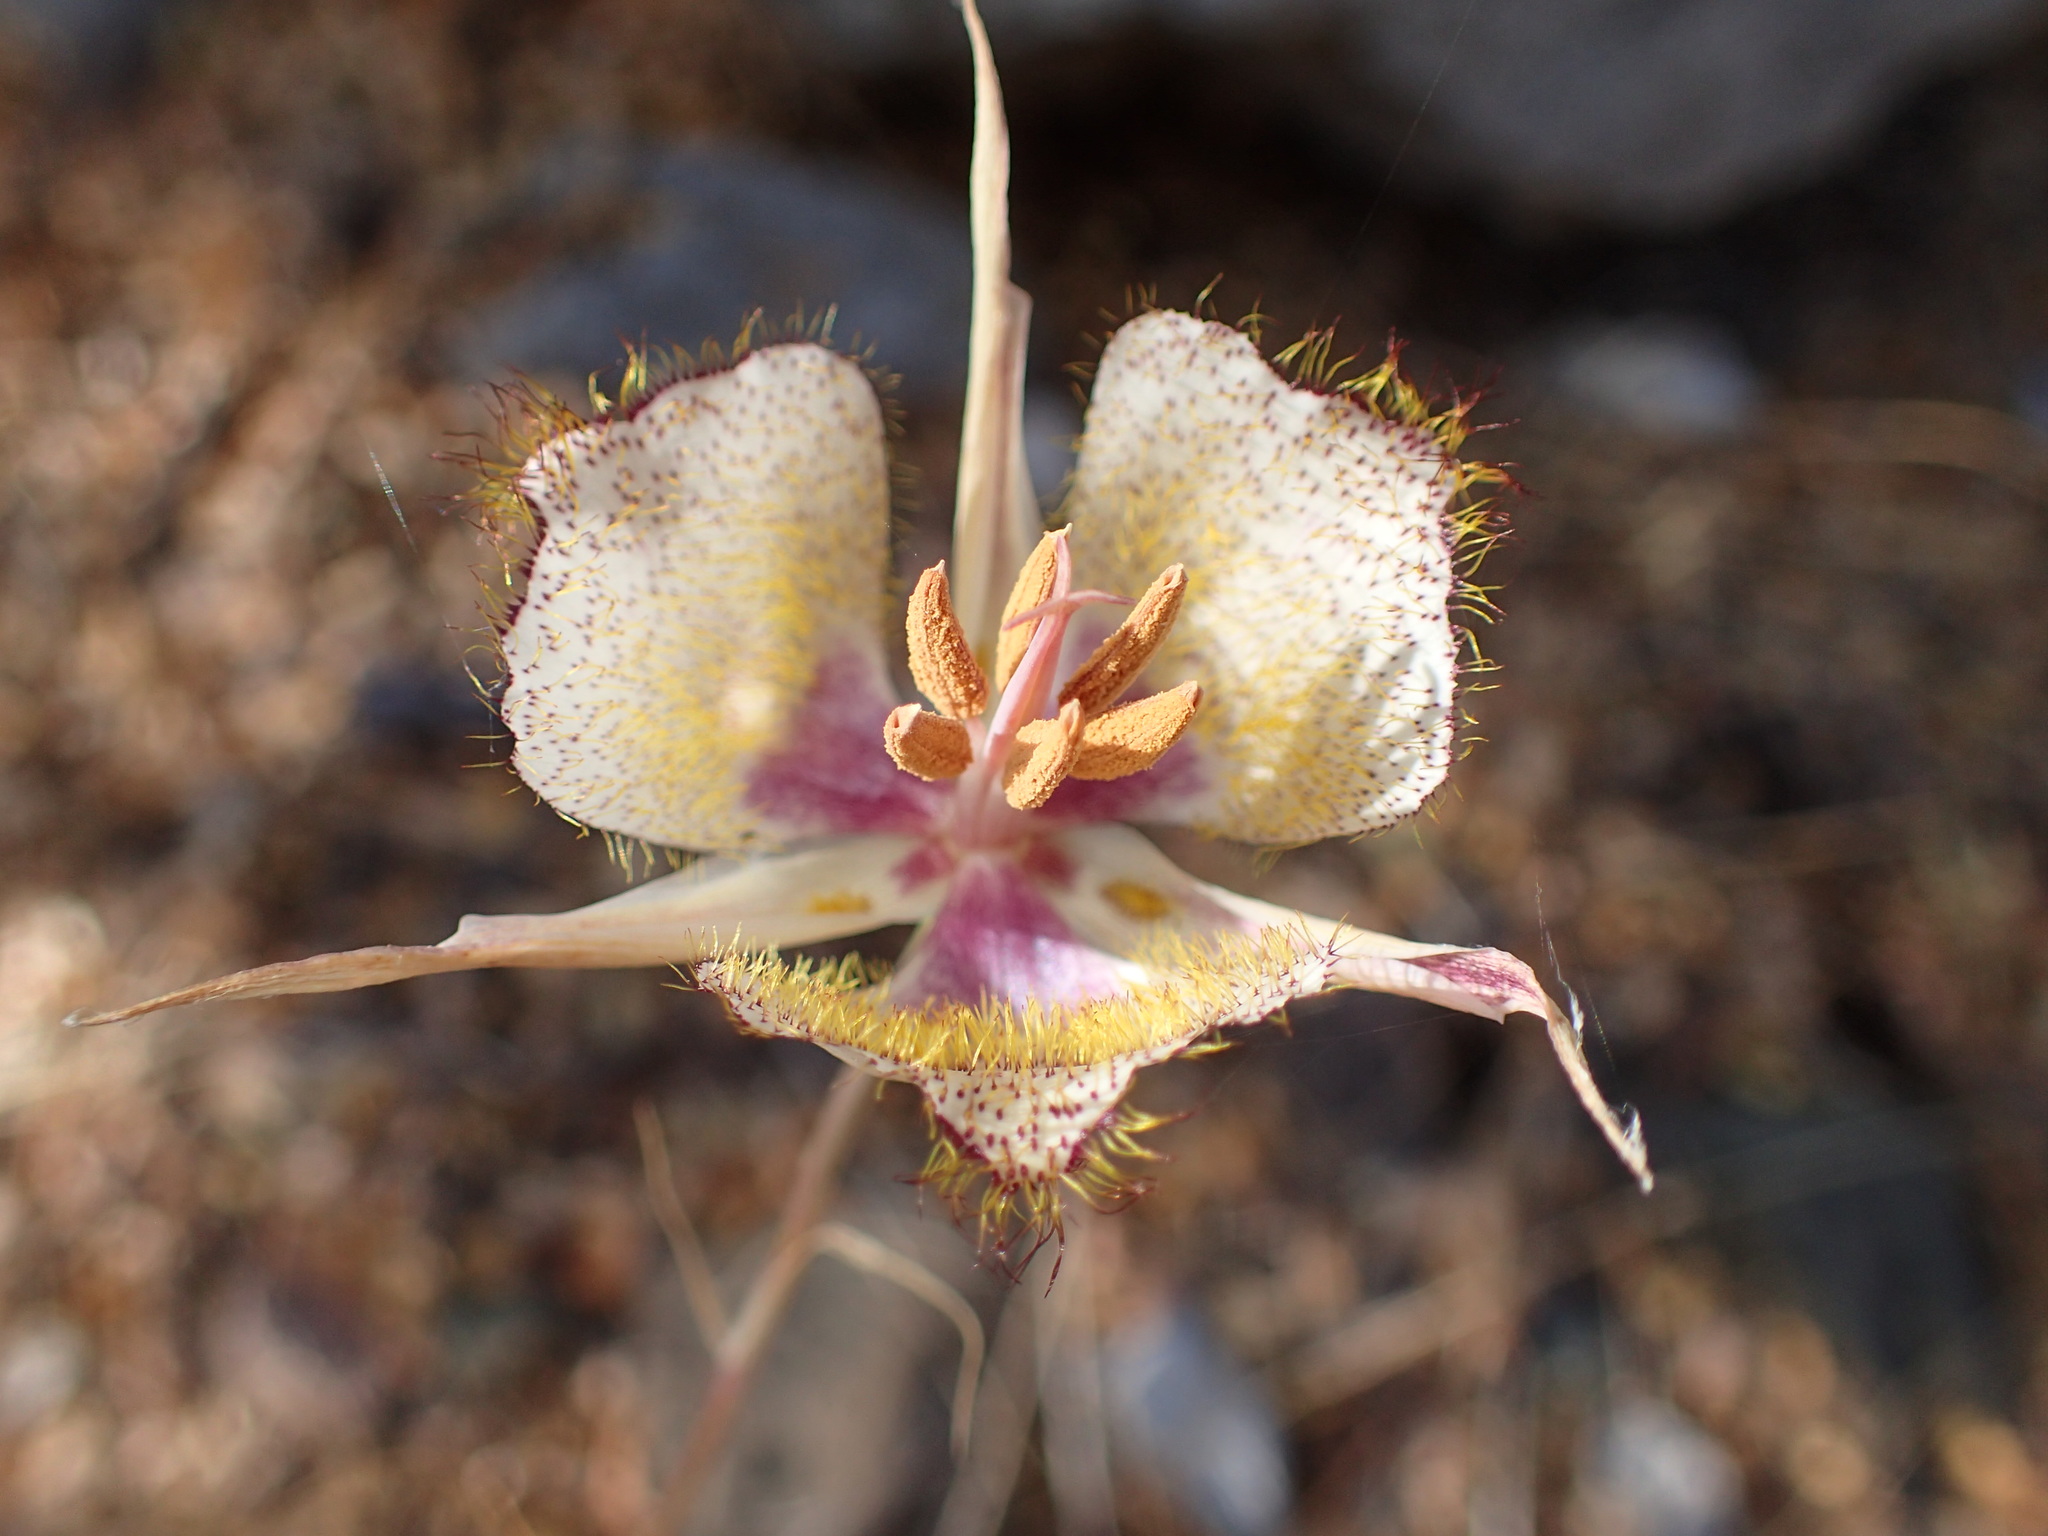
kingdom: Plantae
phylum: Tracheophyta
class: Liliopsida
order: Liliales
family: Liliaceae
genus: Calochortus
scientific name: Calochortus fimbriatus
